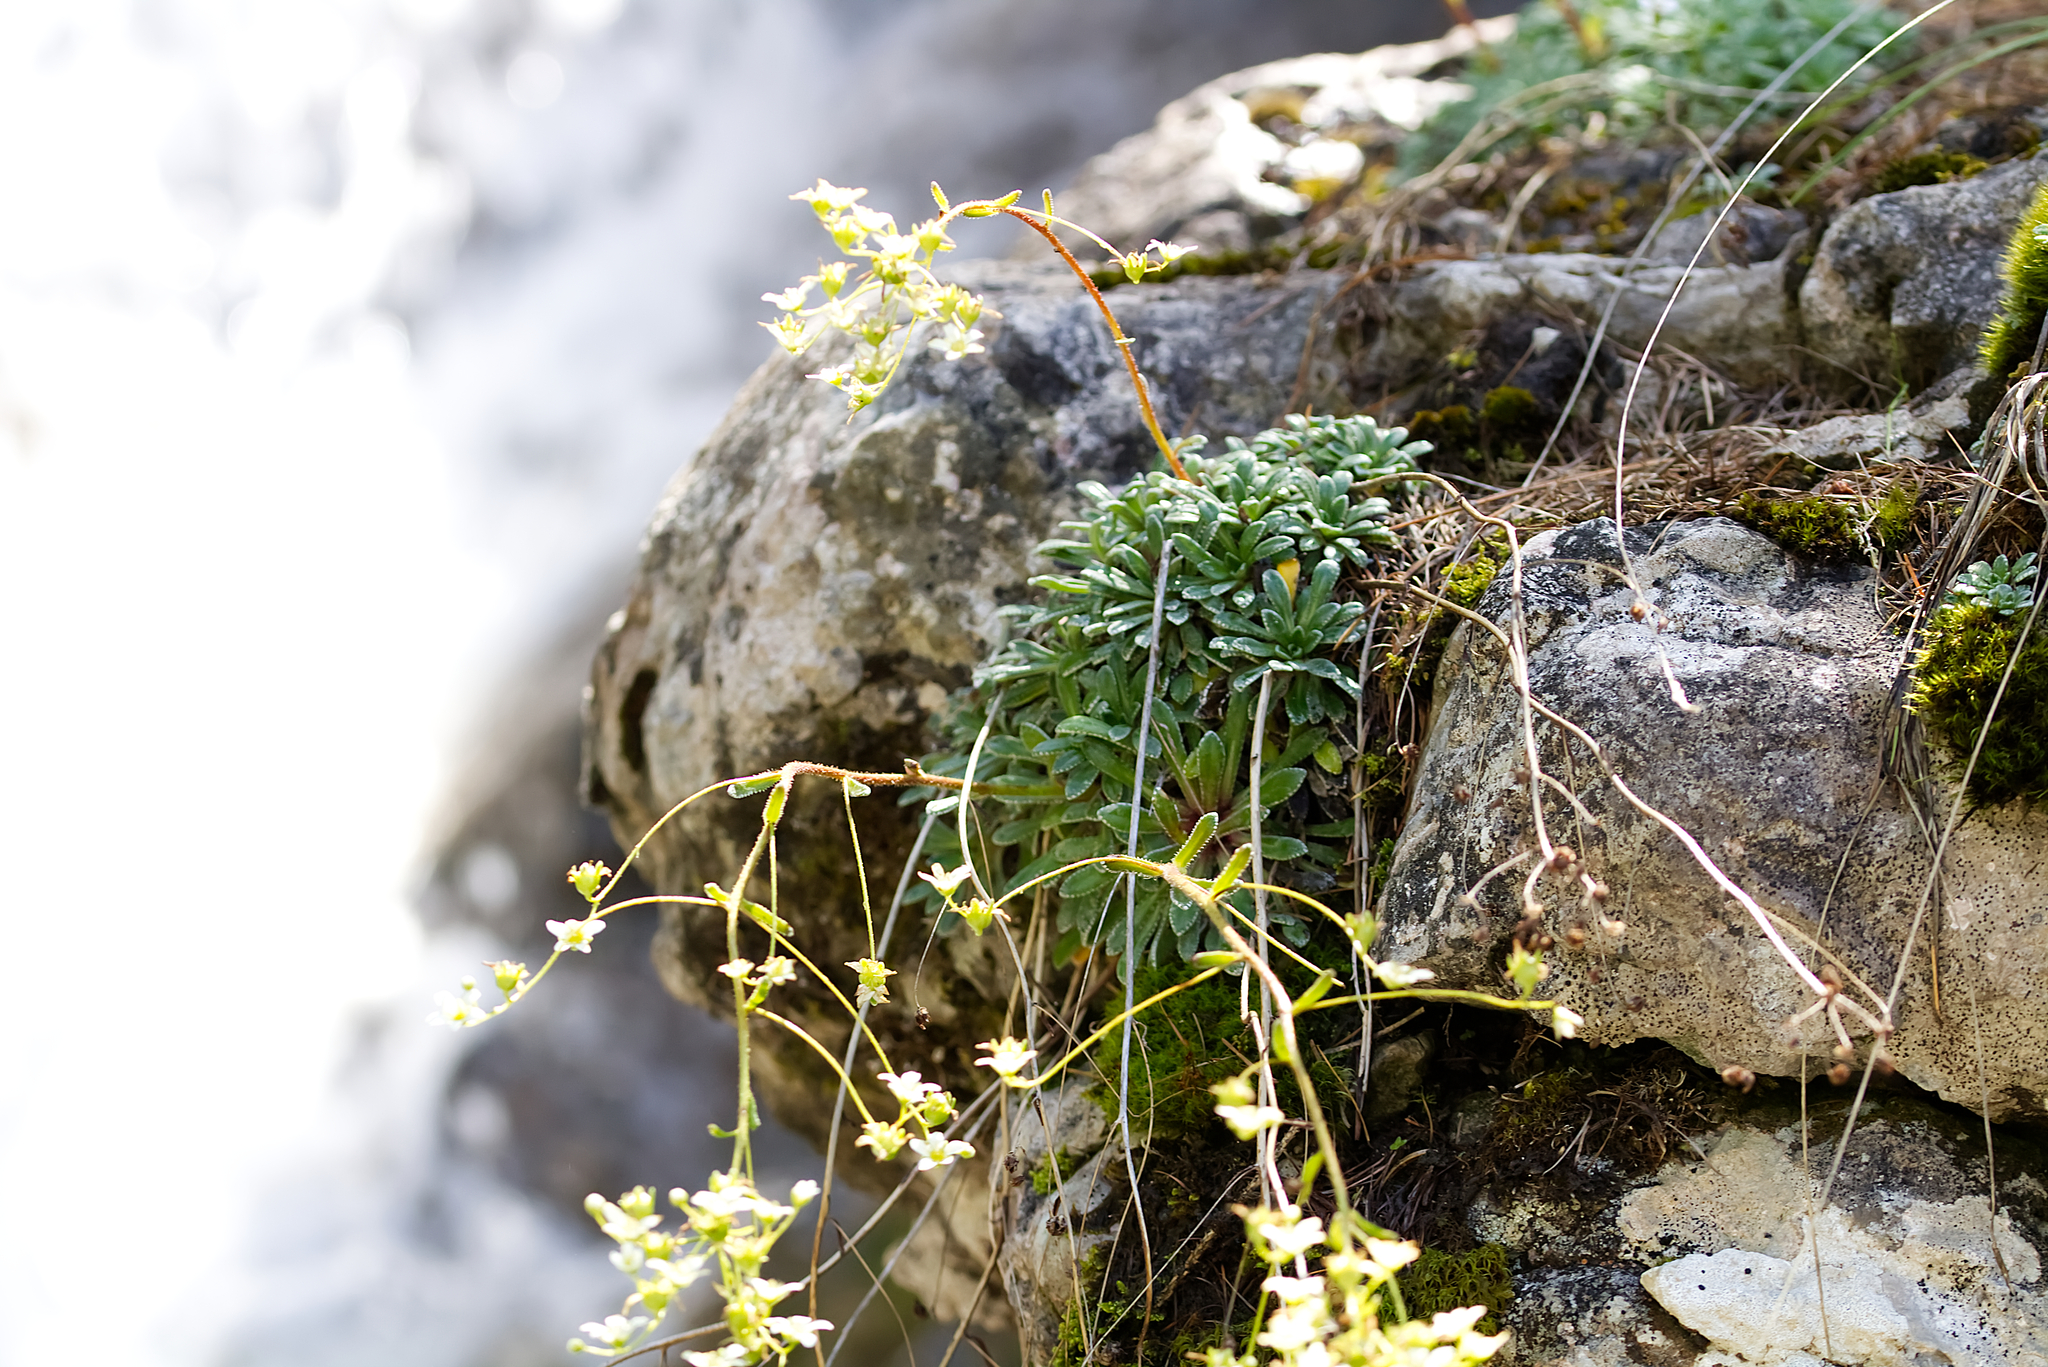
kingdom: Plantae
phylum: Tracheophyta
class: Magnoliopsida
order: Saxifragales
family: Saxifragaceae
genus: Saxifraga
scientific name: Saxifraga crustata
